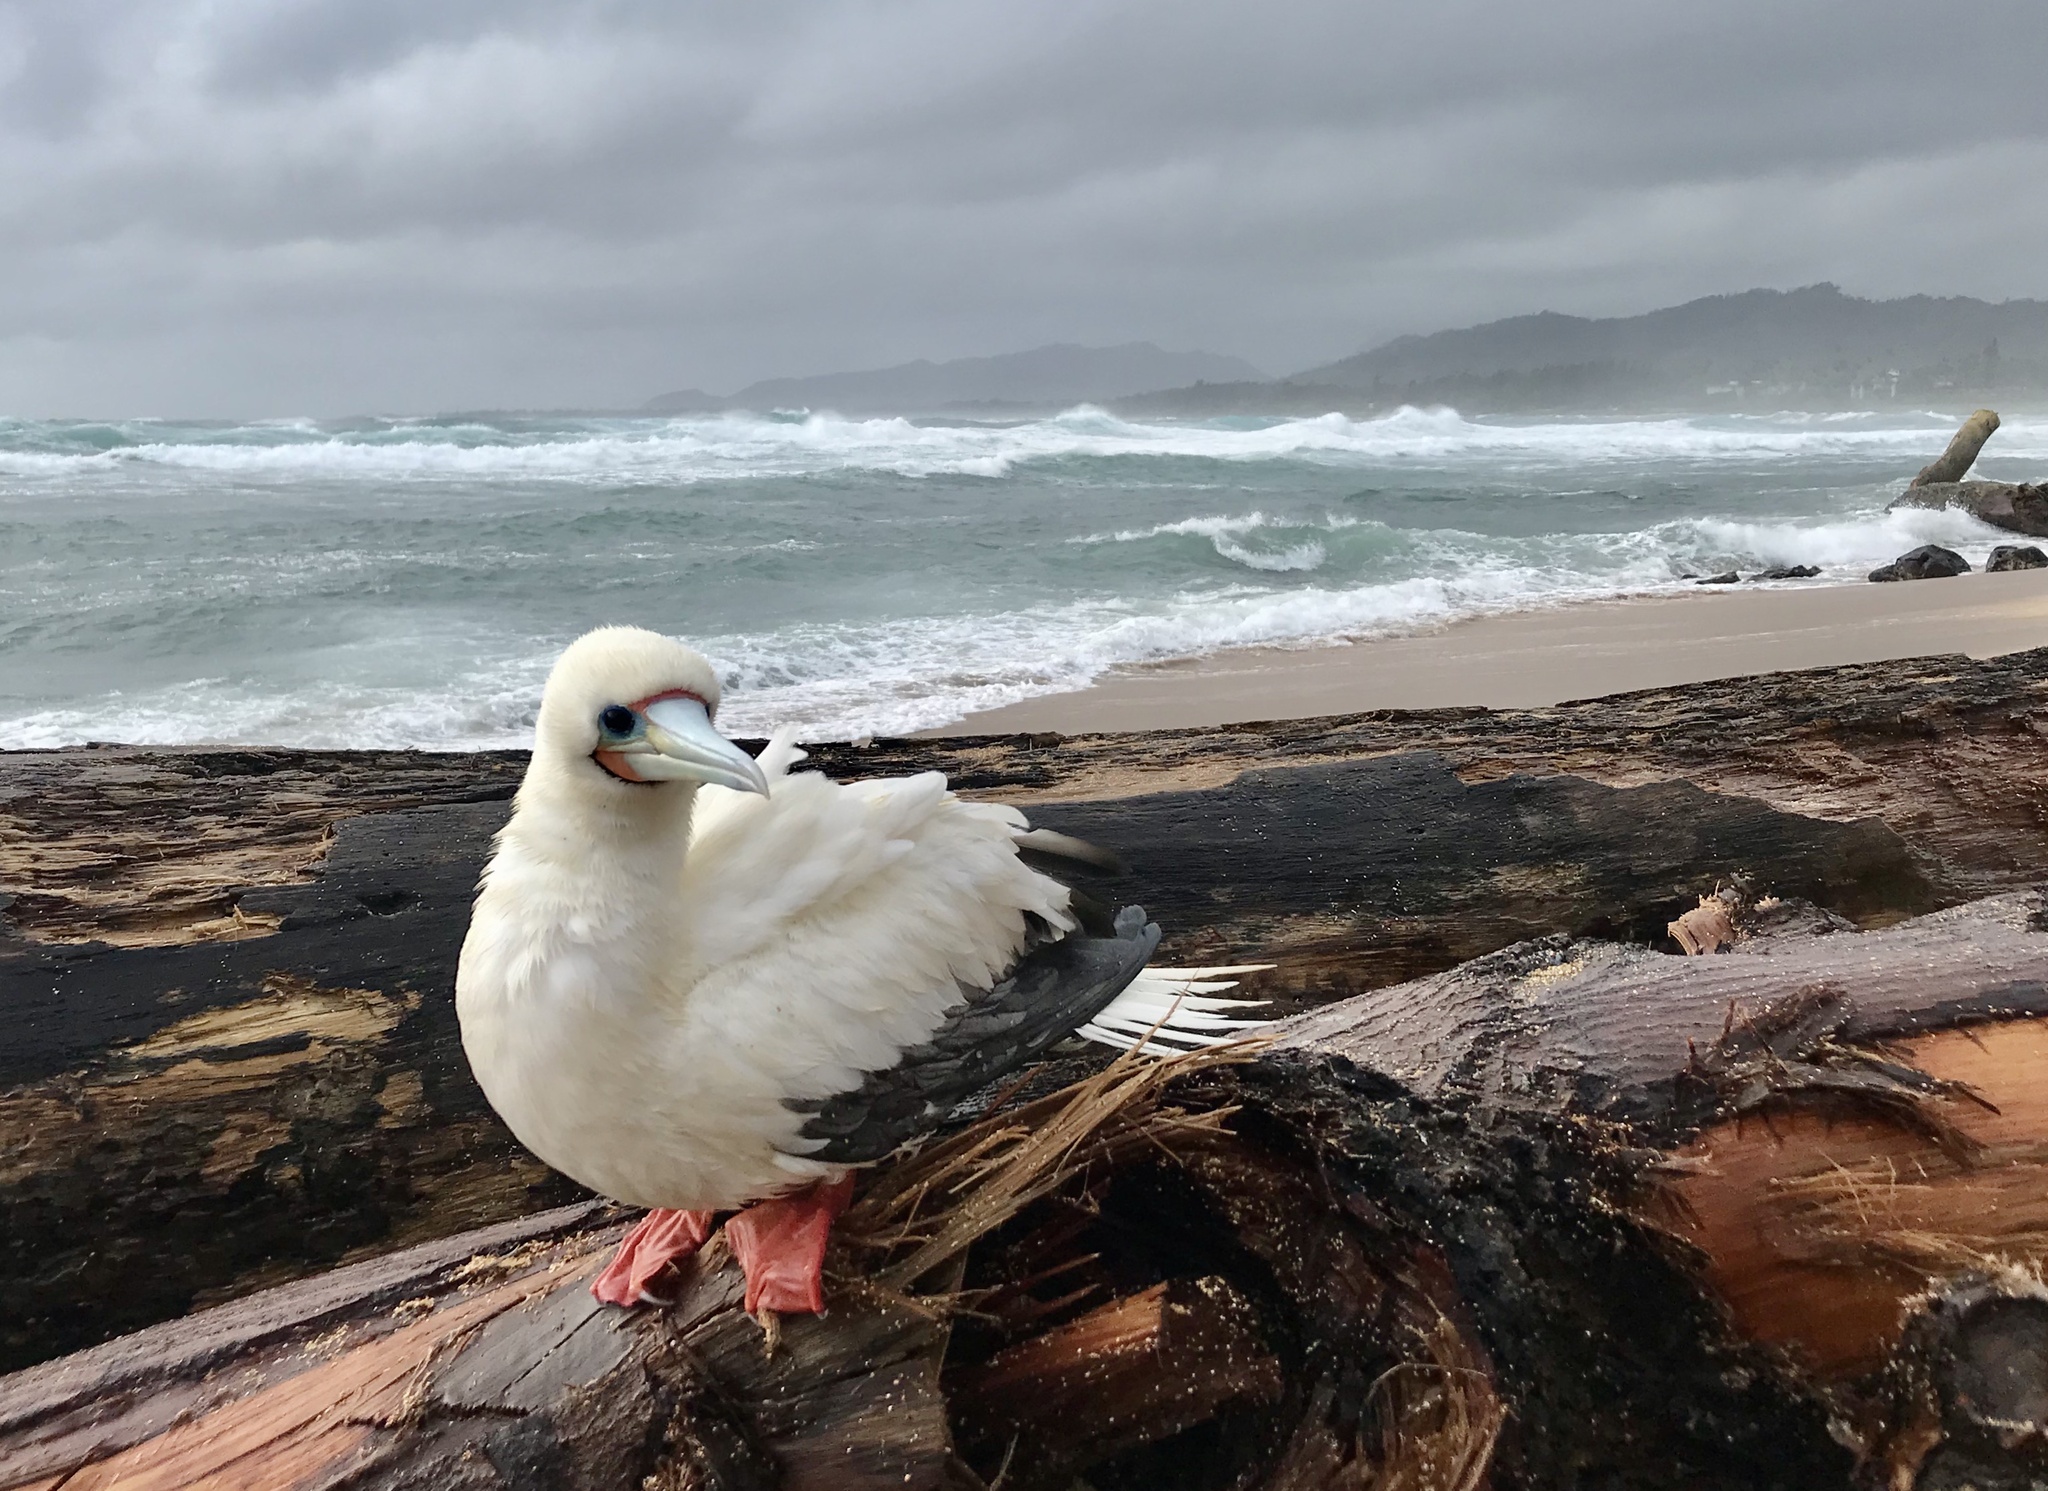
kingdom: Animalia
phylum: Chordata
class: Aves
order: Suliformes
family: Sulidae
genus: Sula
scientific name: Sula sula
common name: Red-footed booby
